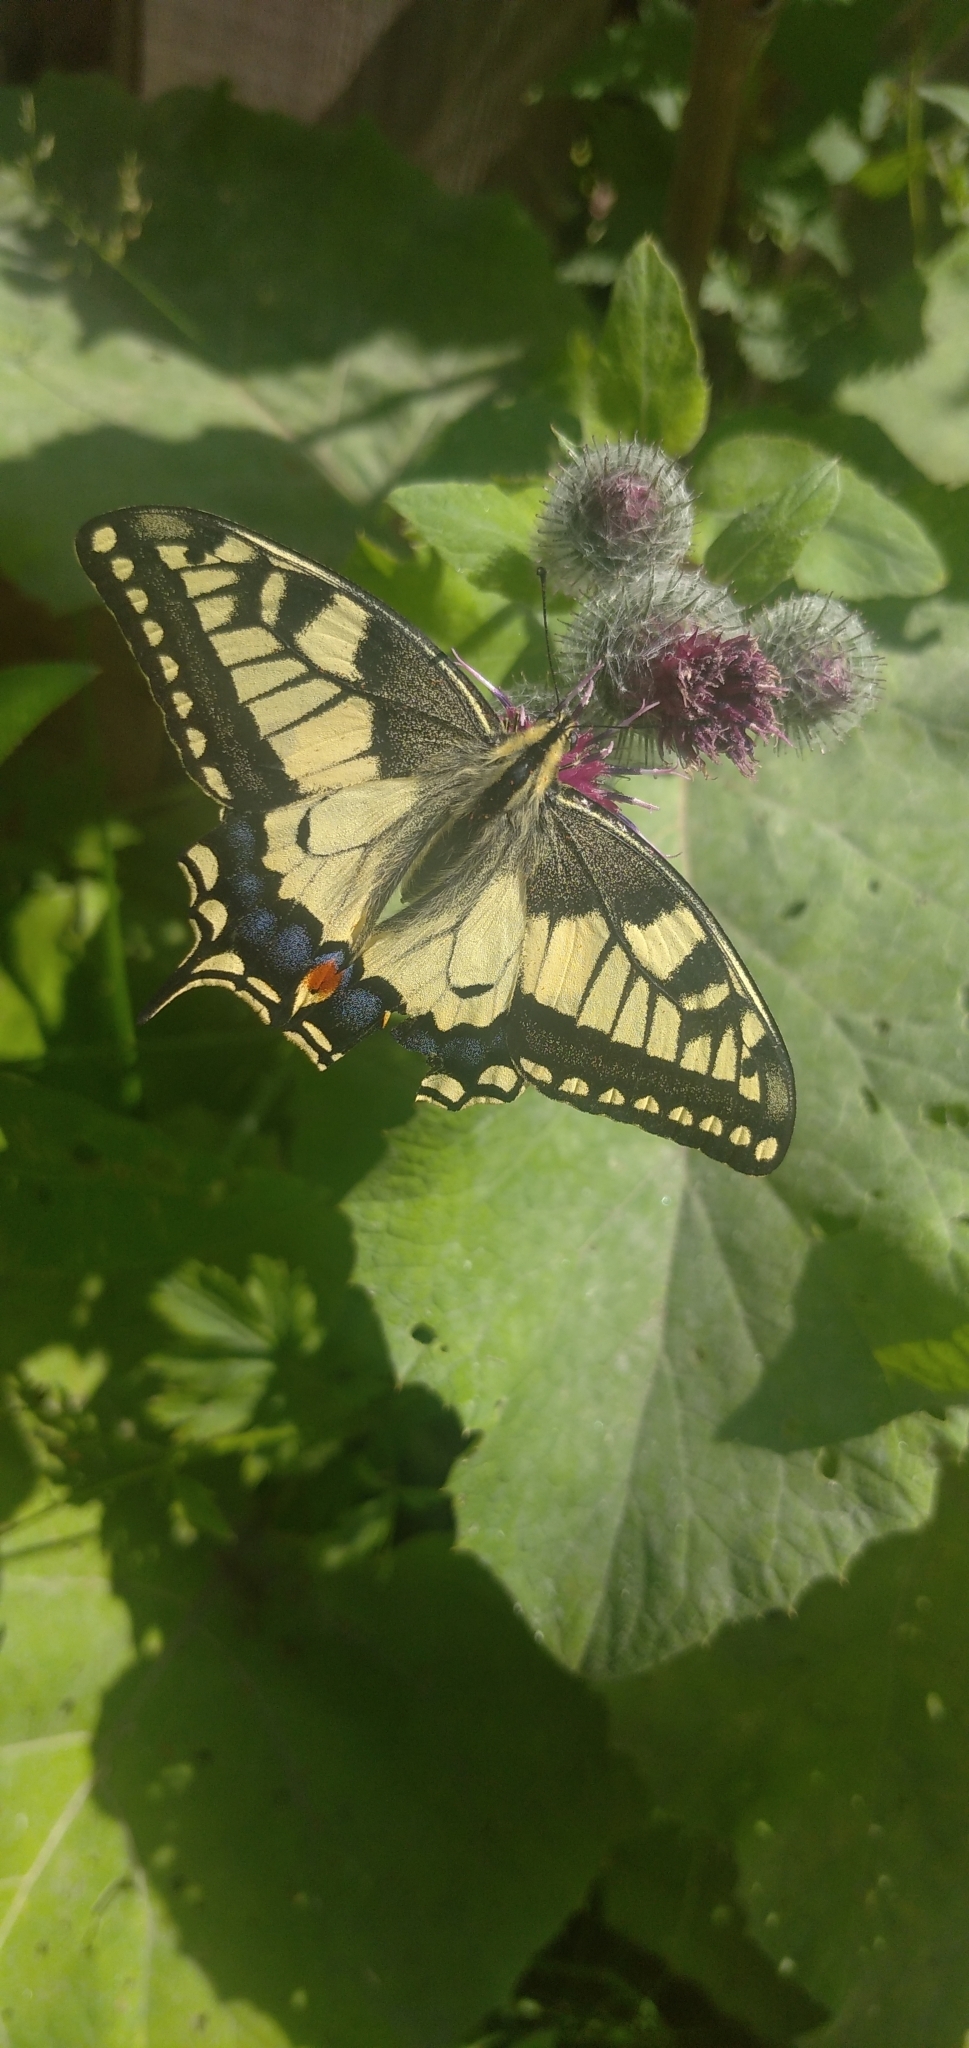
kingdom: Animalia
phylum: Arthropoda
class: Insecta
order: Lepidoptera
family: Papilionidae
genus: Papilio
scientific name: Papilio machaon
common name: Swallowtail
